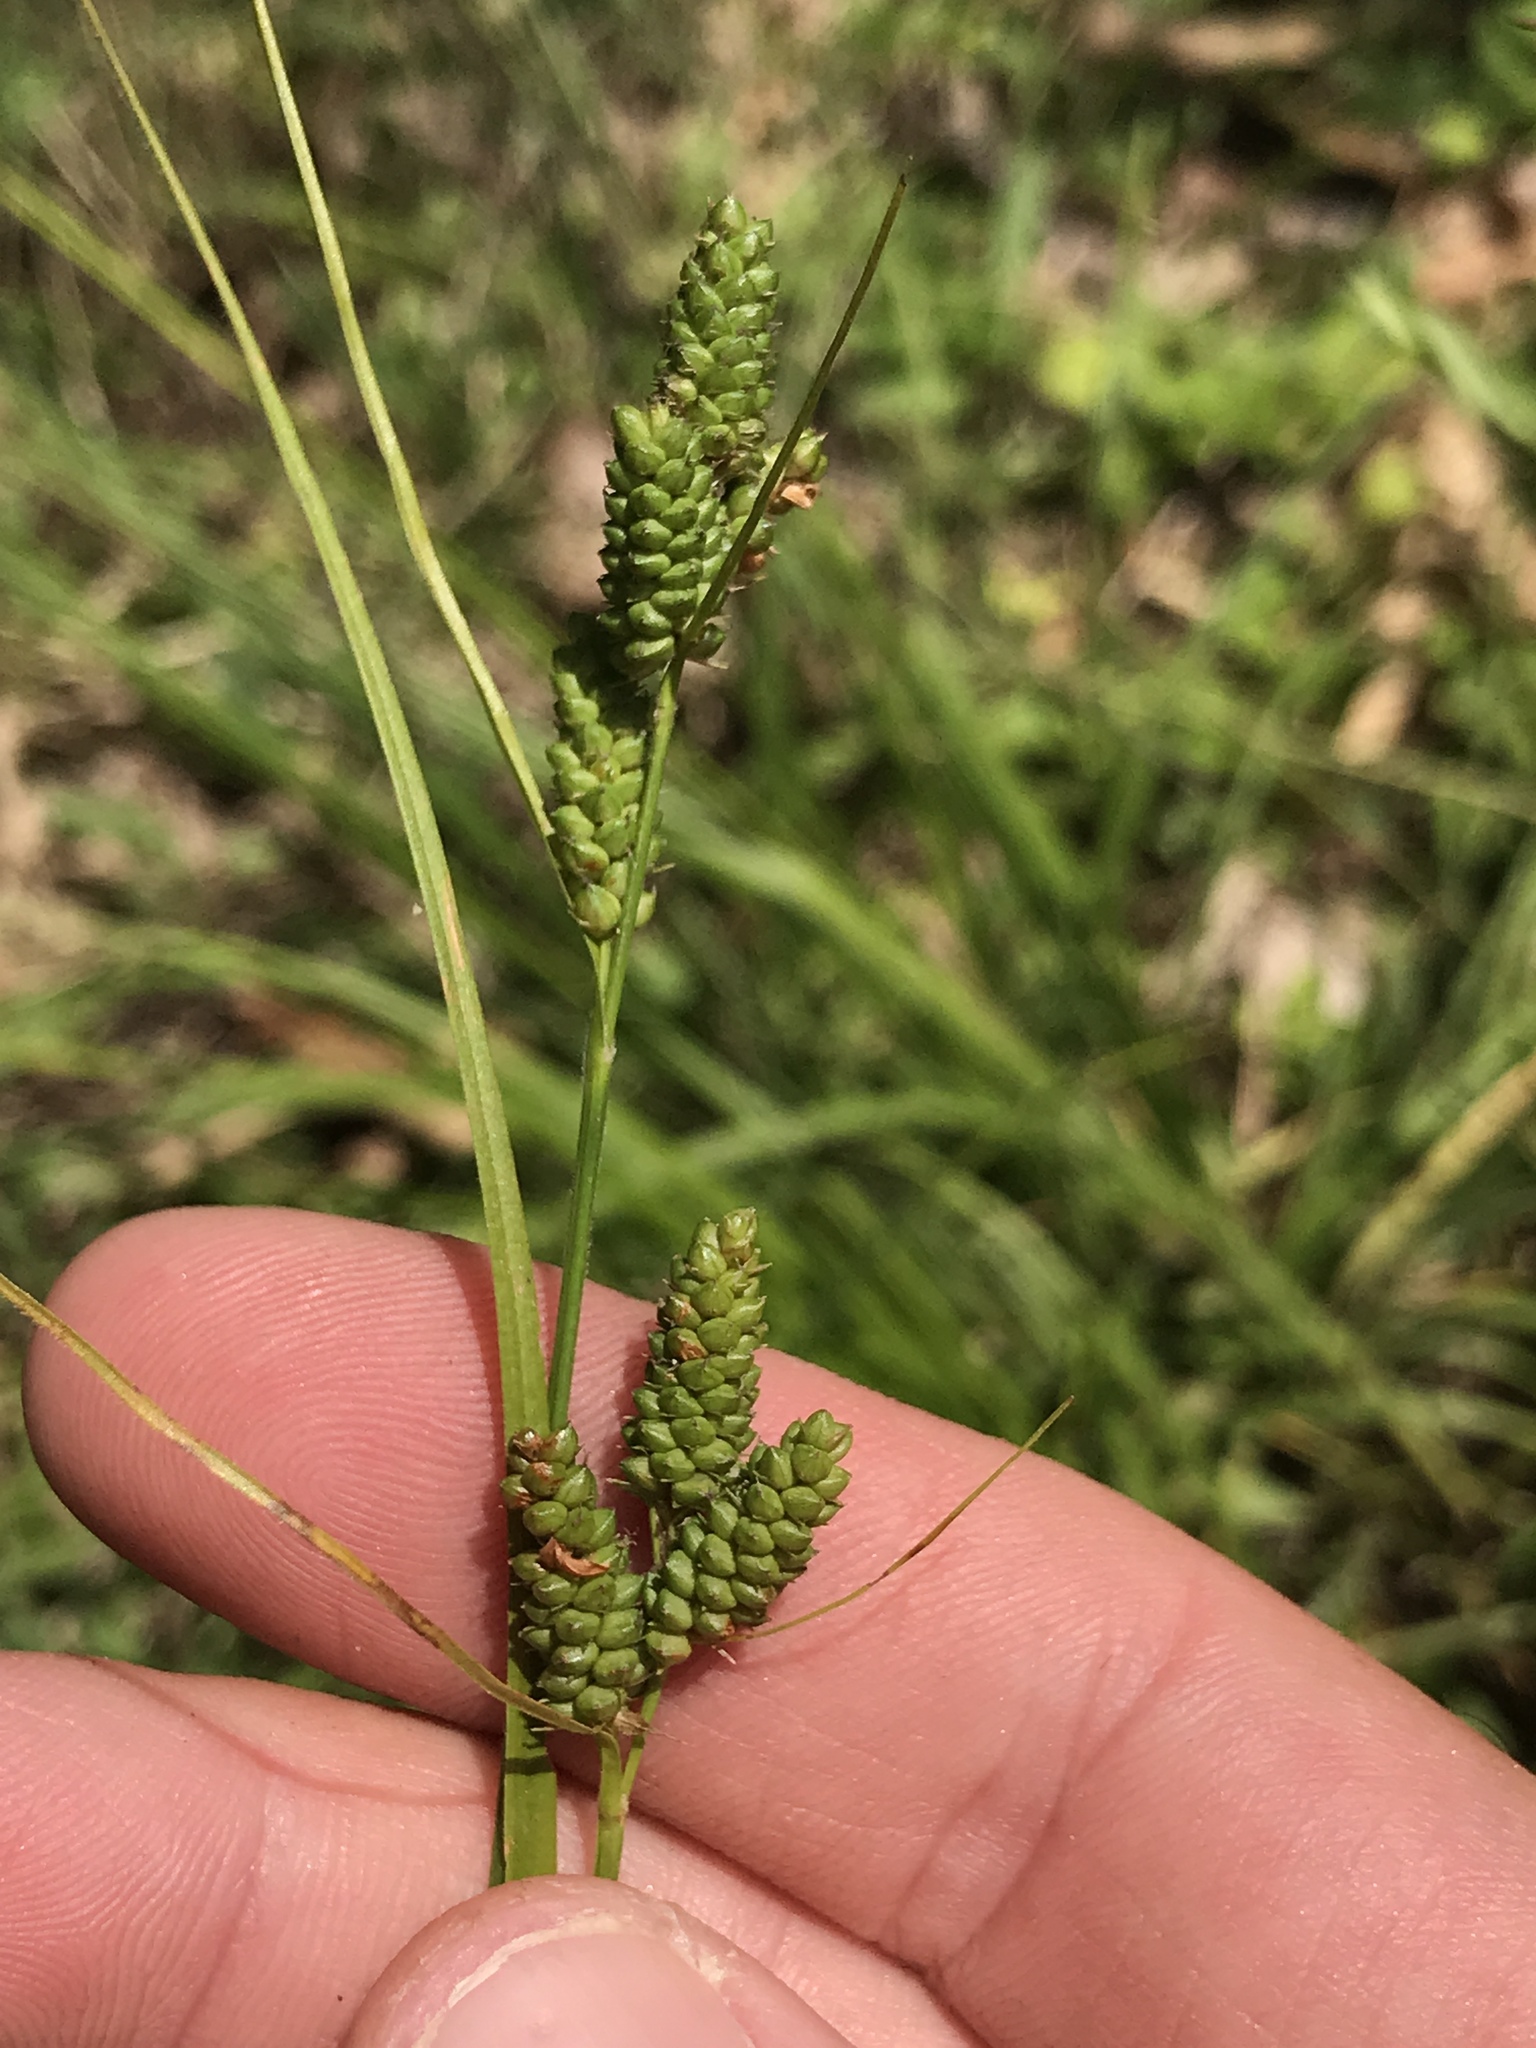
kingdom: Plantae
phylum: Tracheophyta
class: Liliopsida
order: Poales
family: Cyperaceae
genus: Carex
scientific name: Carex hirsutella
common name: Fuzzy wuzzy sedge
